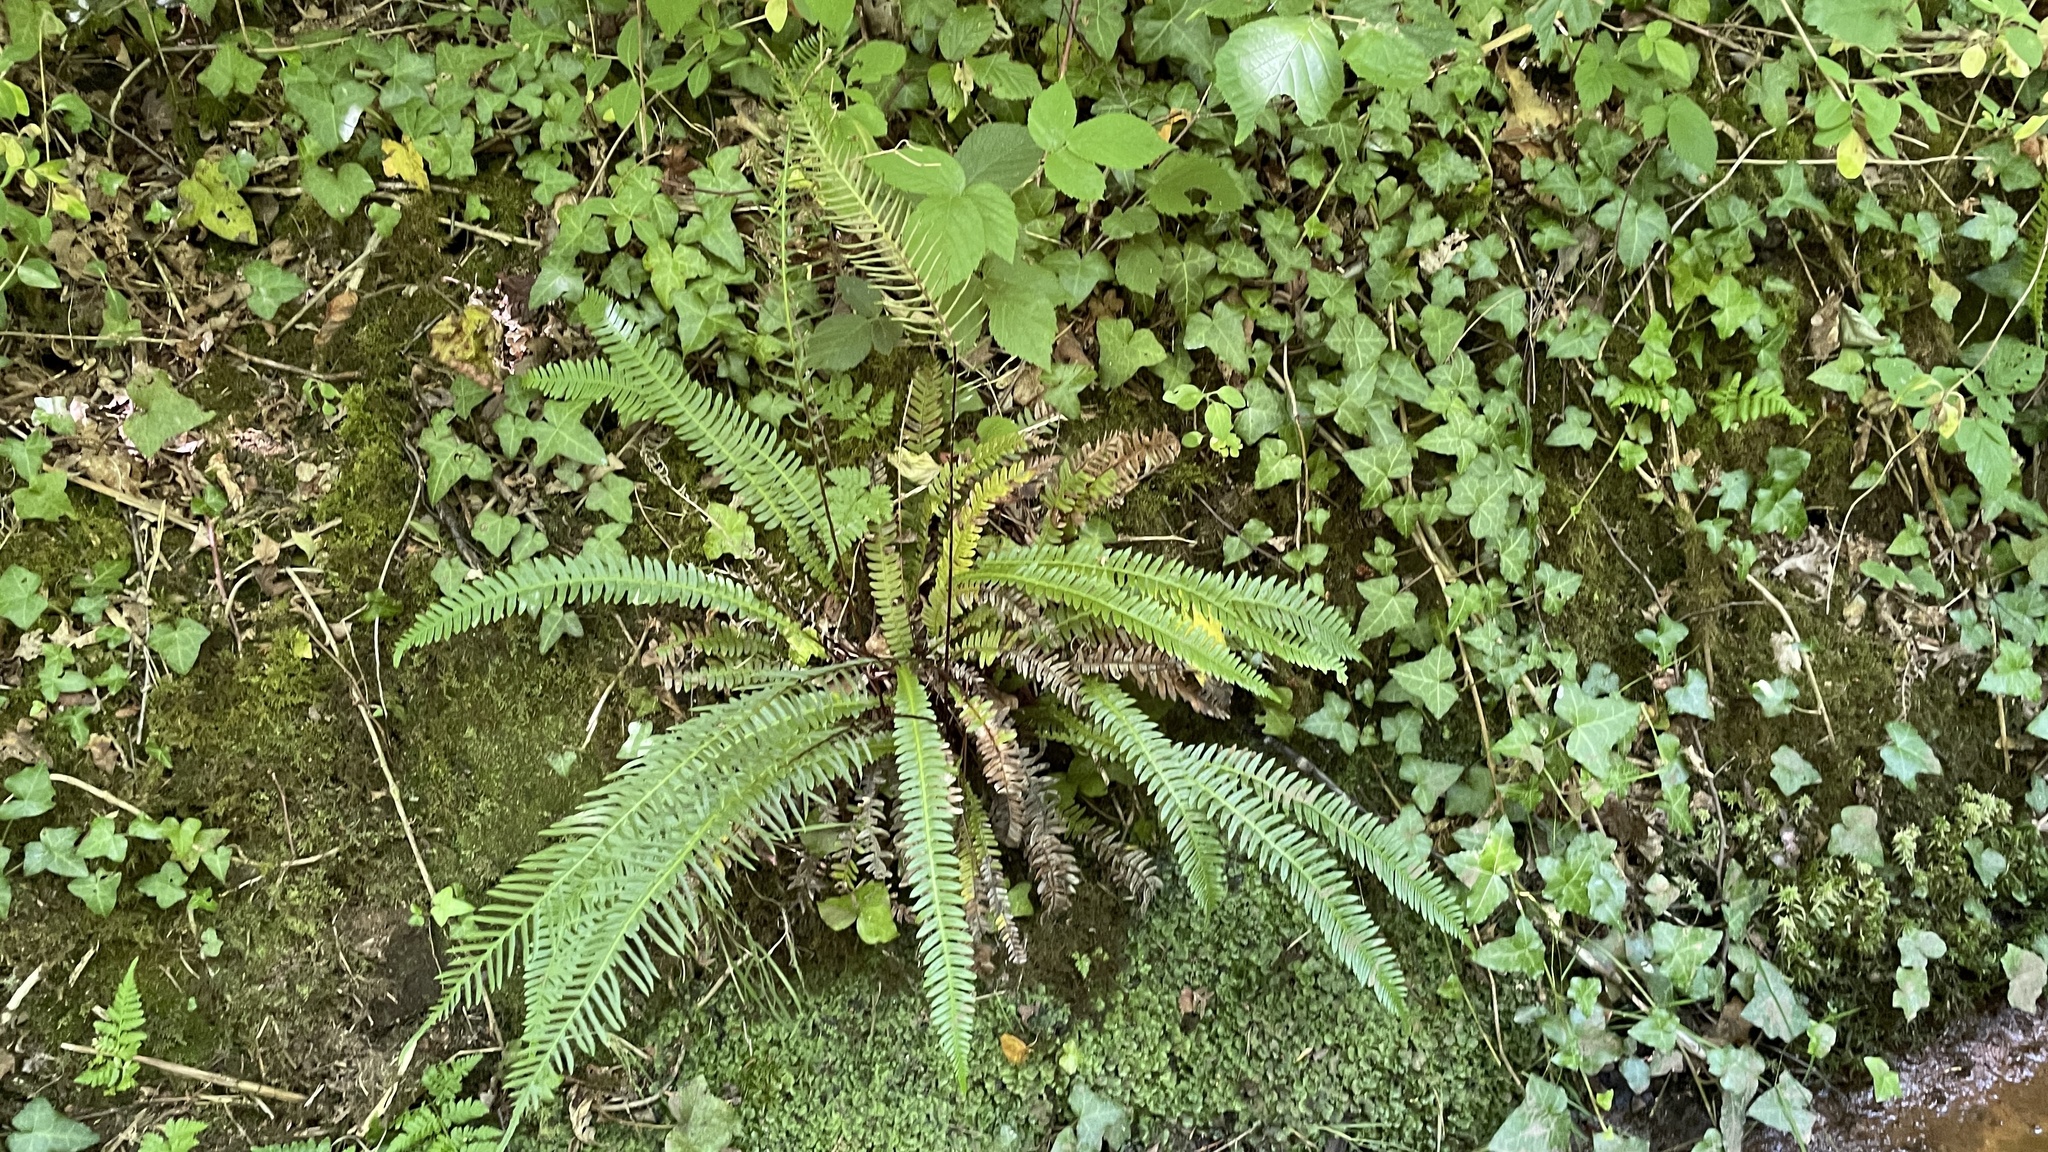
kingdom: Plantae
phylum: Tracheophyta
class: Polypodiopsida
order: Polypodiales
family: Blechnaceae
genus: Struthiopteris
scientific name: Struthiopteris spicant
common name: Deer fern
